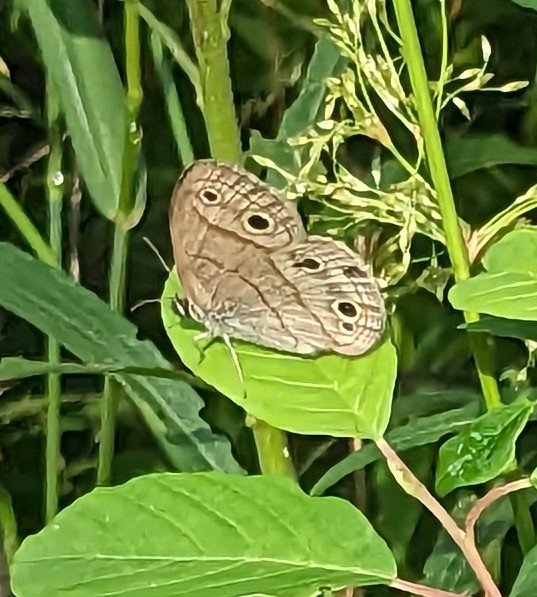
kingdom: Animalia
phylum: Arthropoda
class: Insecta
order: Lepidoptera
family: Nymphalidae
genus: Euptychia
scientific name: Euptychia cymela
